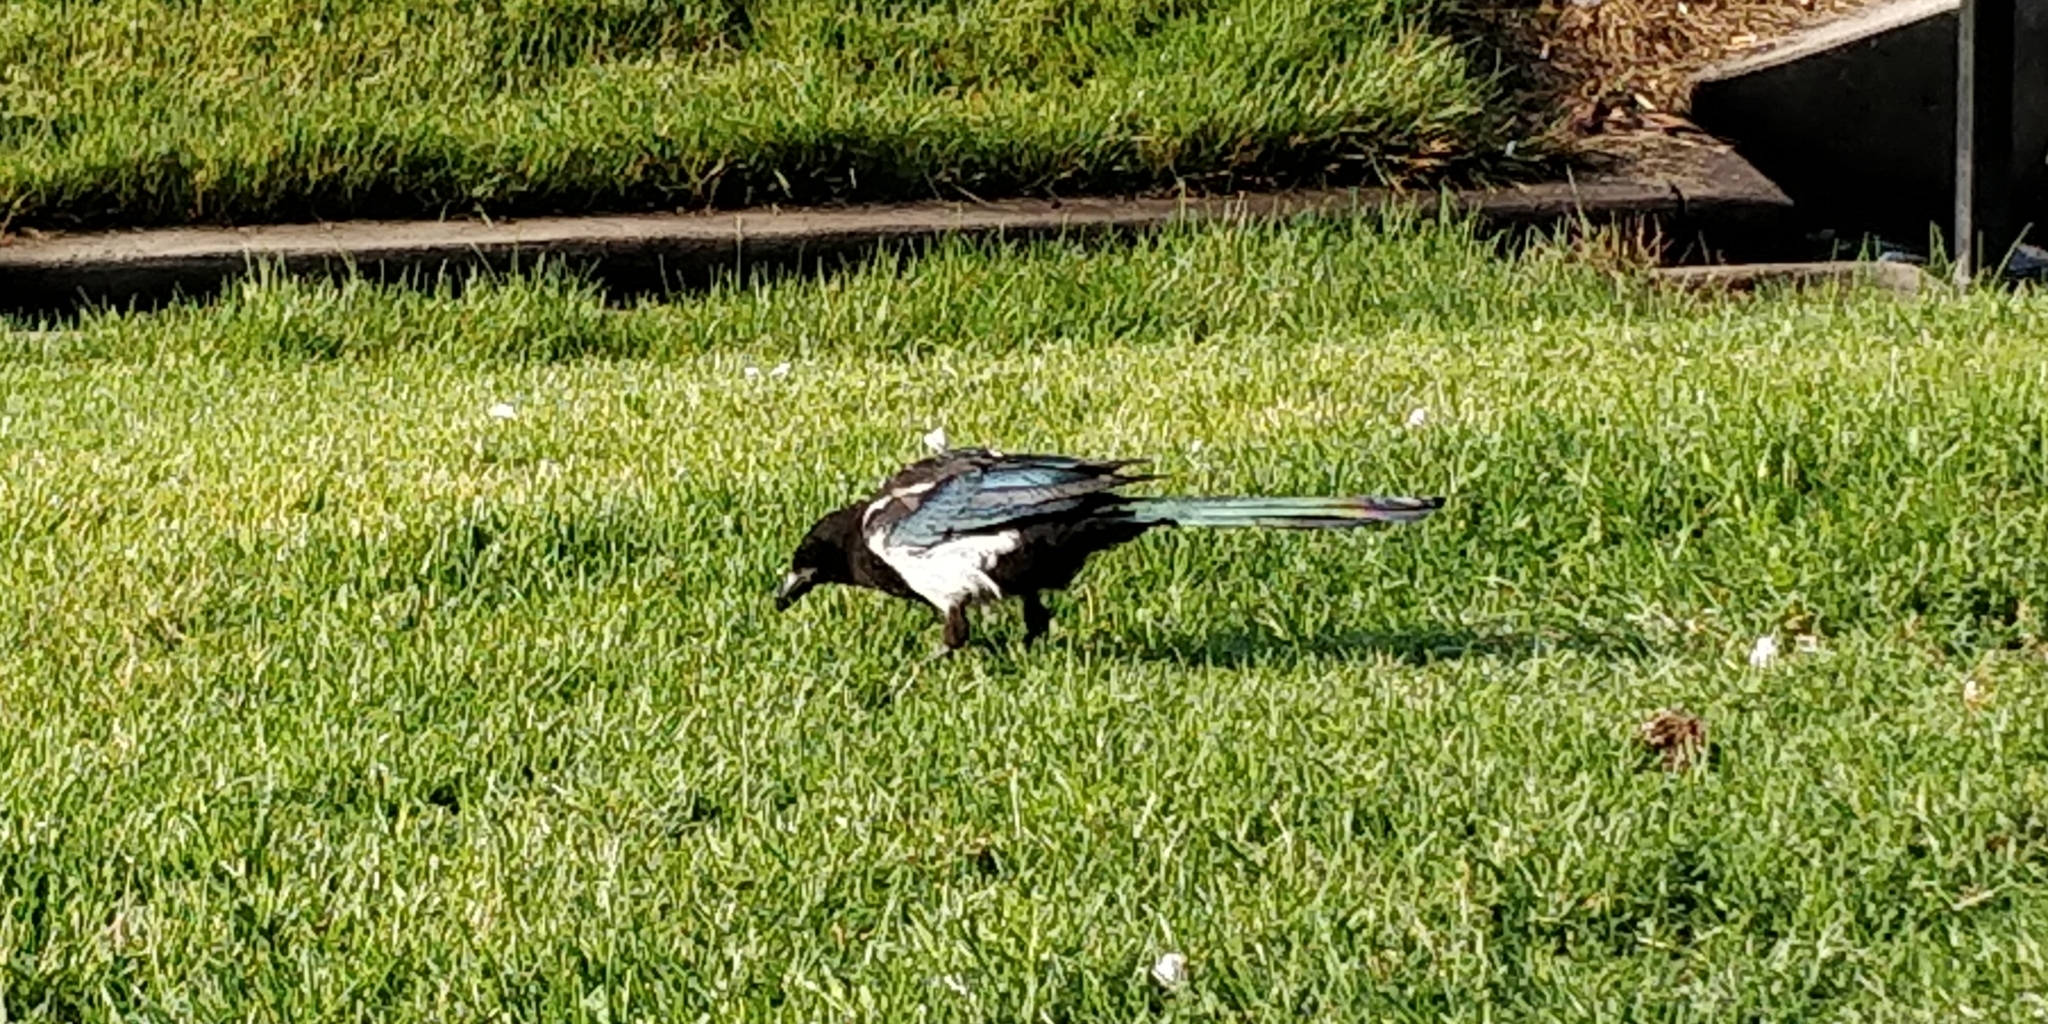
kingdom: Animalia
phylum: Chordata
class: Aves
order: Passeriformes
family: Corvidae
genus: Pica
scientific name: Pica hudsonia
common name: Black-billed magpie
